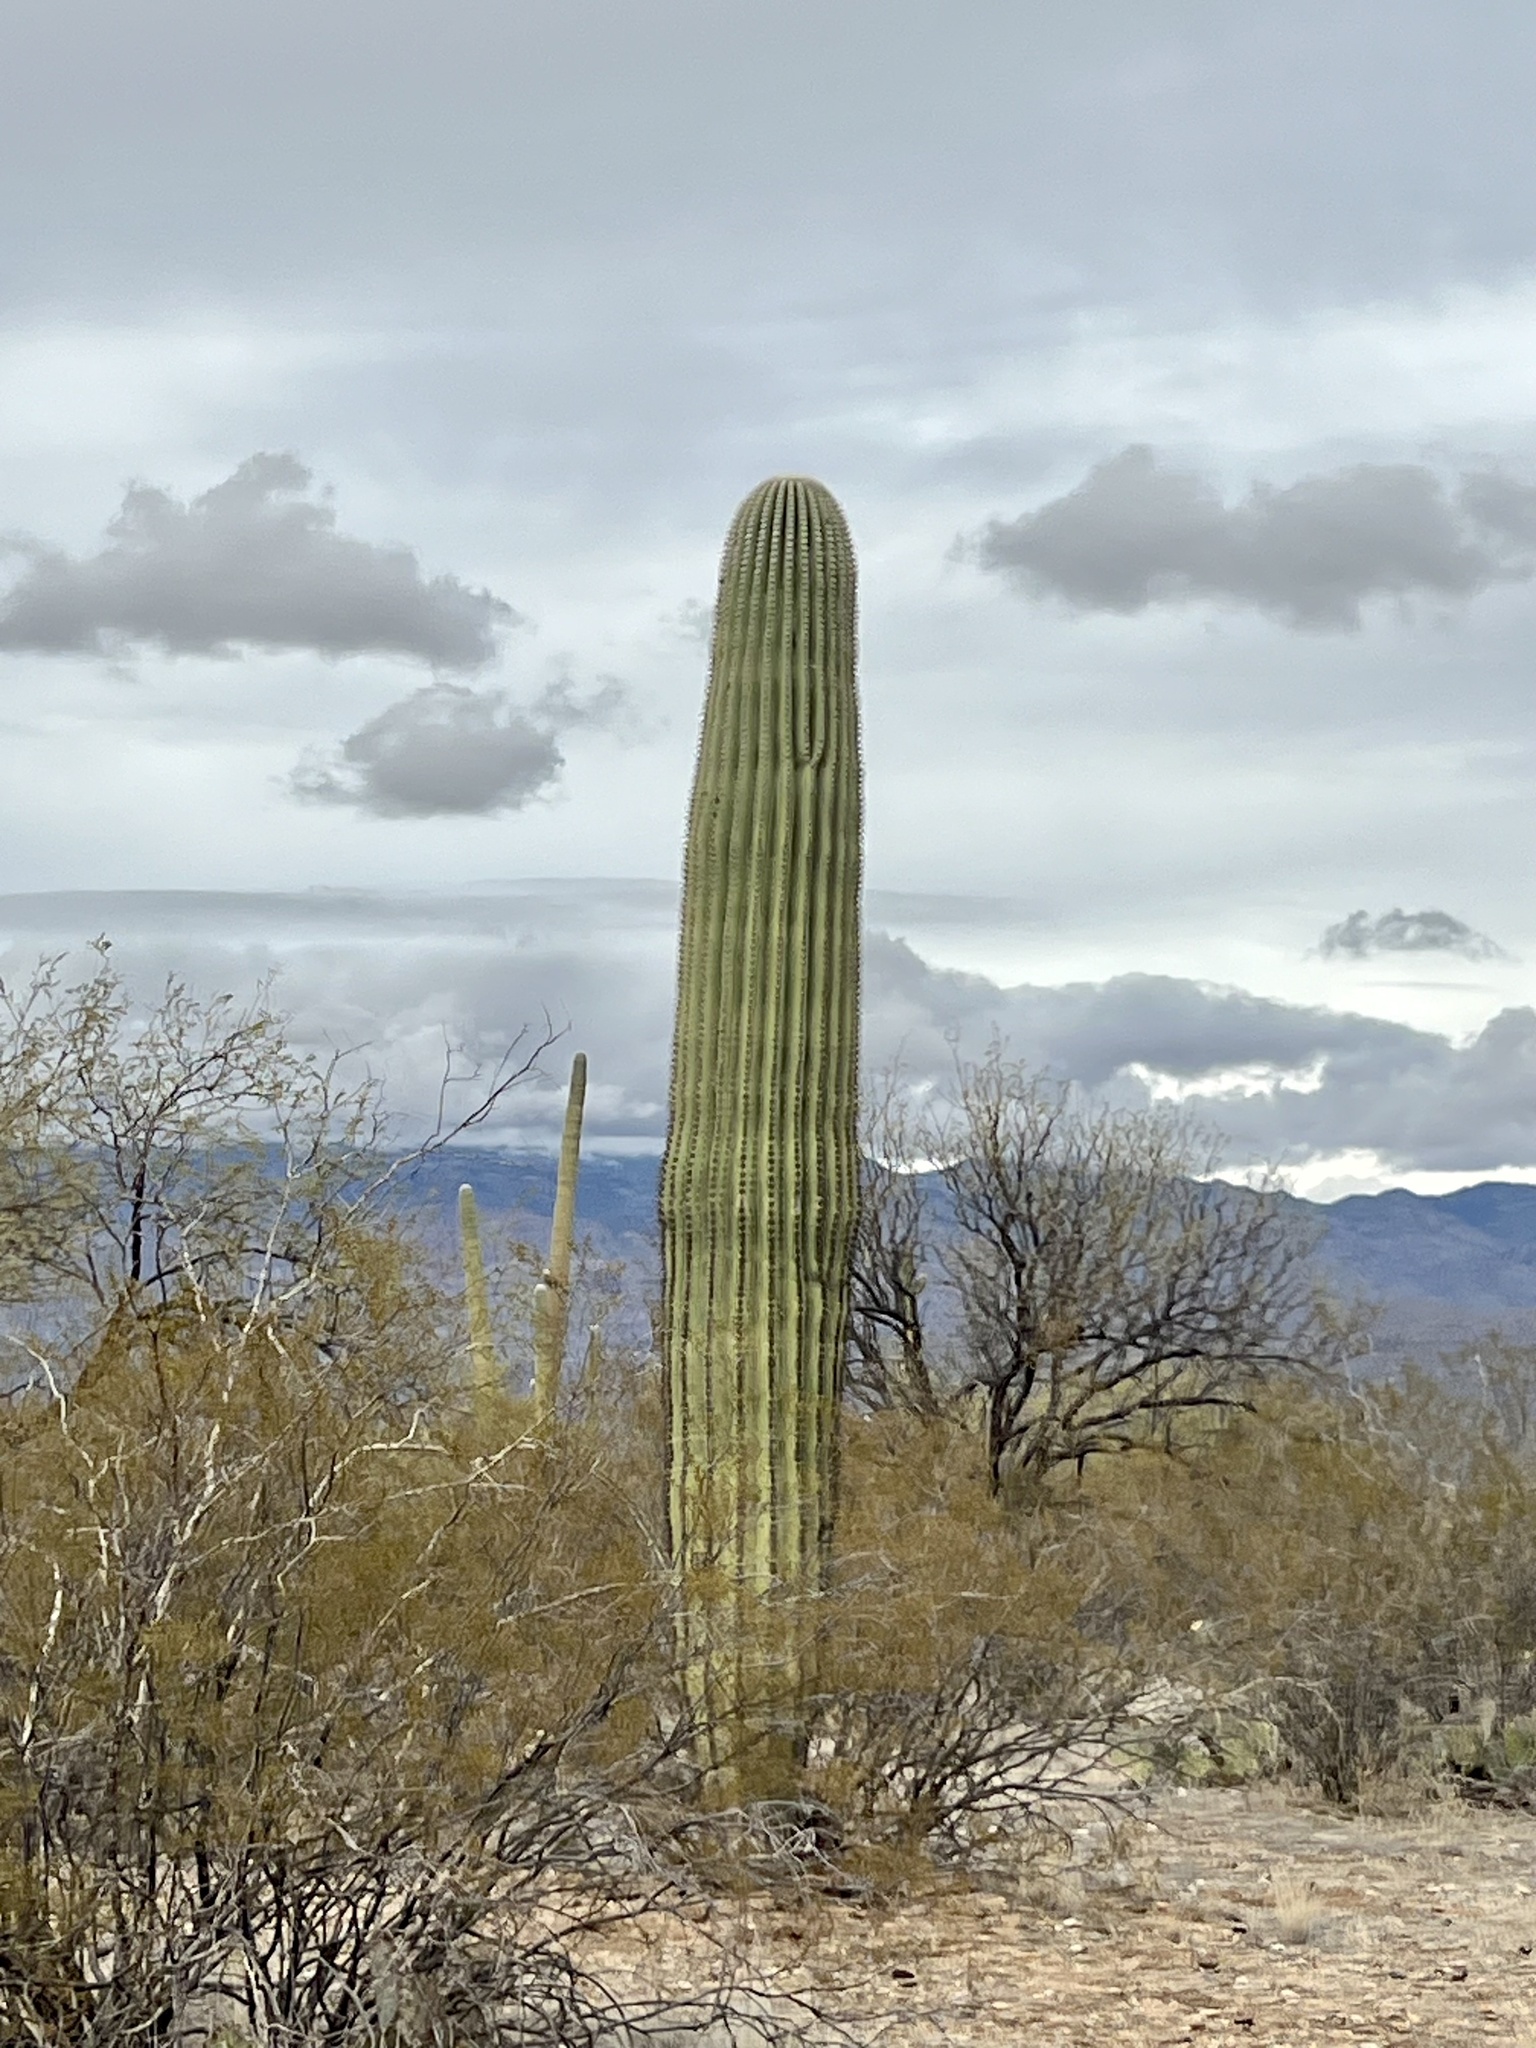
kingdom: Plantae
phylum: Tracheophyta
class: Magnoliopsida
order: Caryophyllales
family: Cactaceae
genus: Carnegiea
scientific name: Carnegiea gigantea
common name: Saguaro
